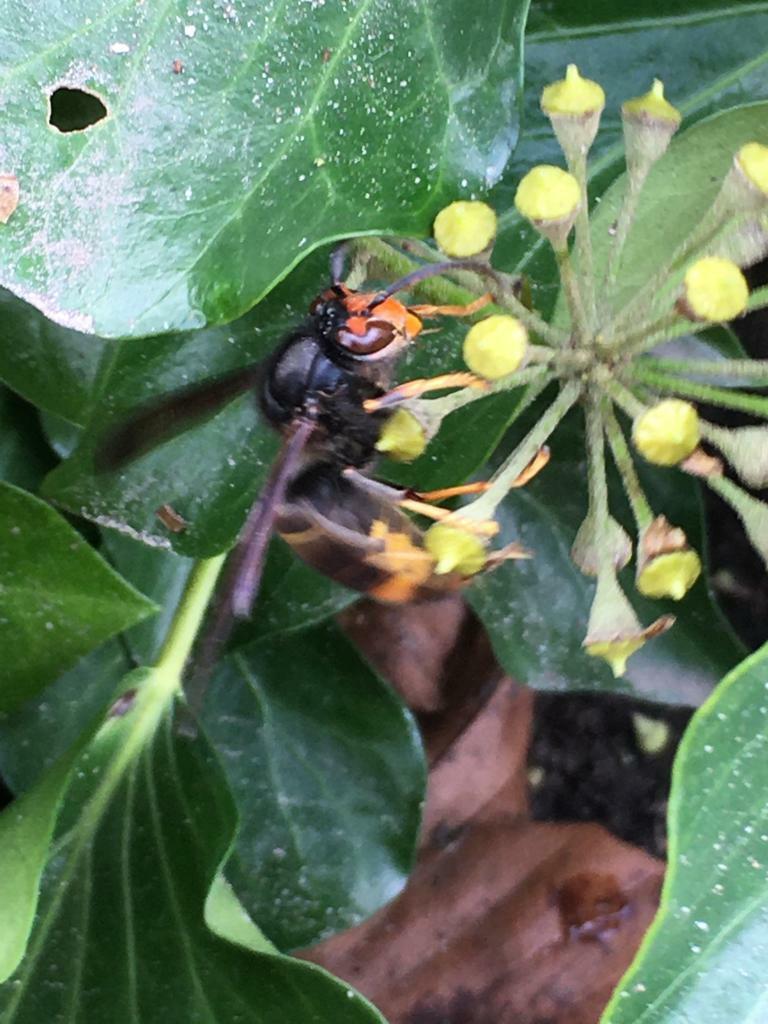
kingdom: Animalia
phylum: Arthropoda
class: Insecta
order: Hymenoptera
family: Vespidae
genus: Vespa
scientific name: Vespa velutina
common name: Asian hornet
